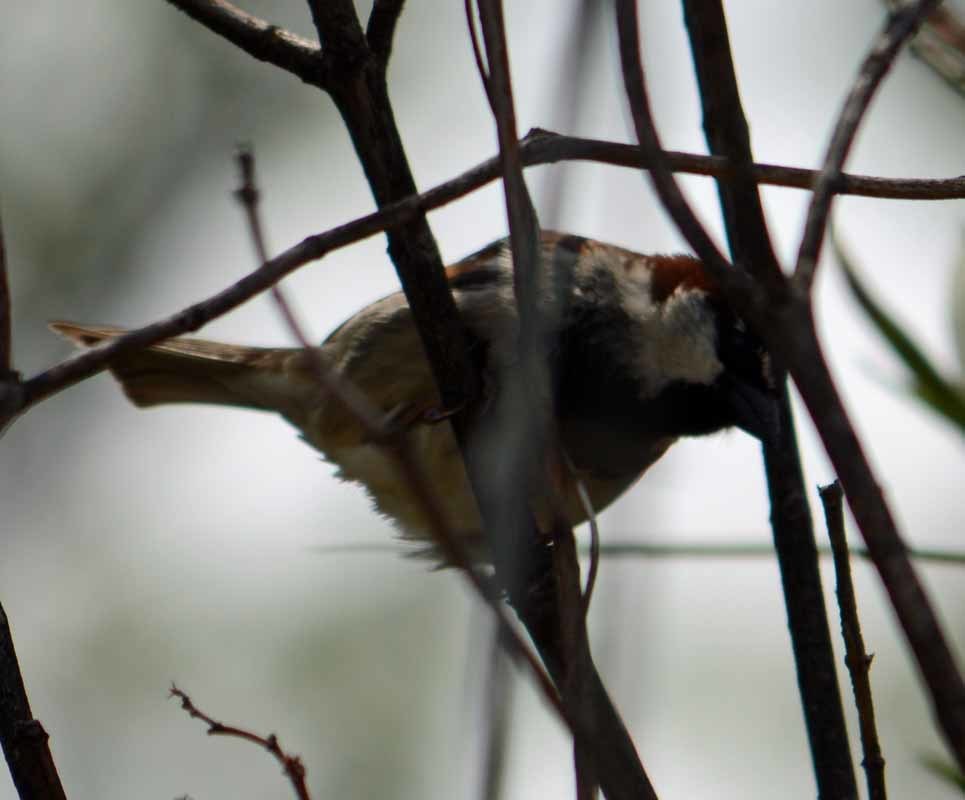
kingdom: Animalia
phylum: Chordata
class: Aves
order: Passeriformes
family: Passeridae
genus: Passer
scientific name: Passer domesticus
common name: House sparrow
